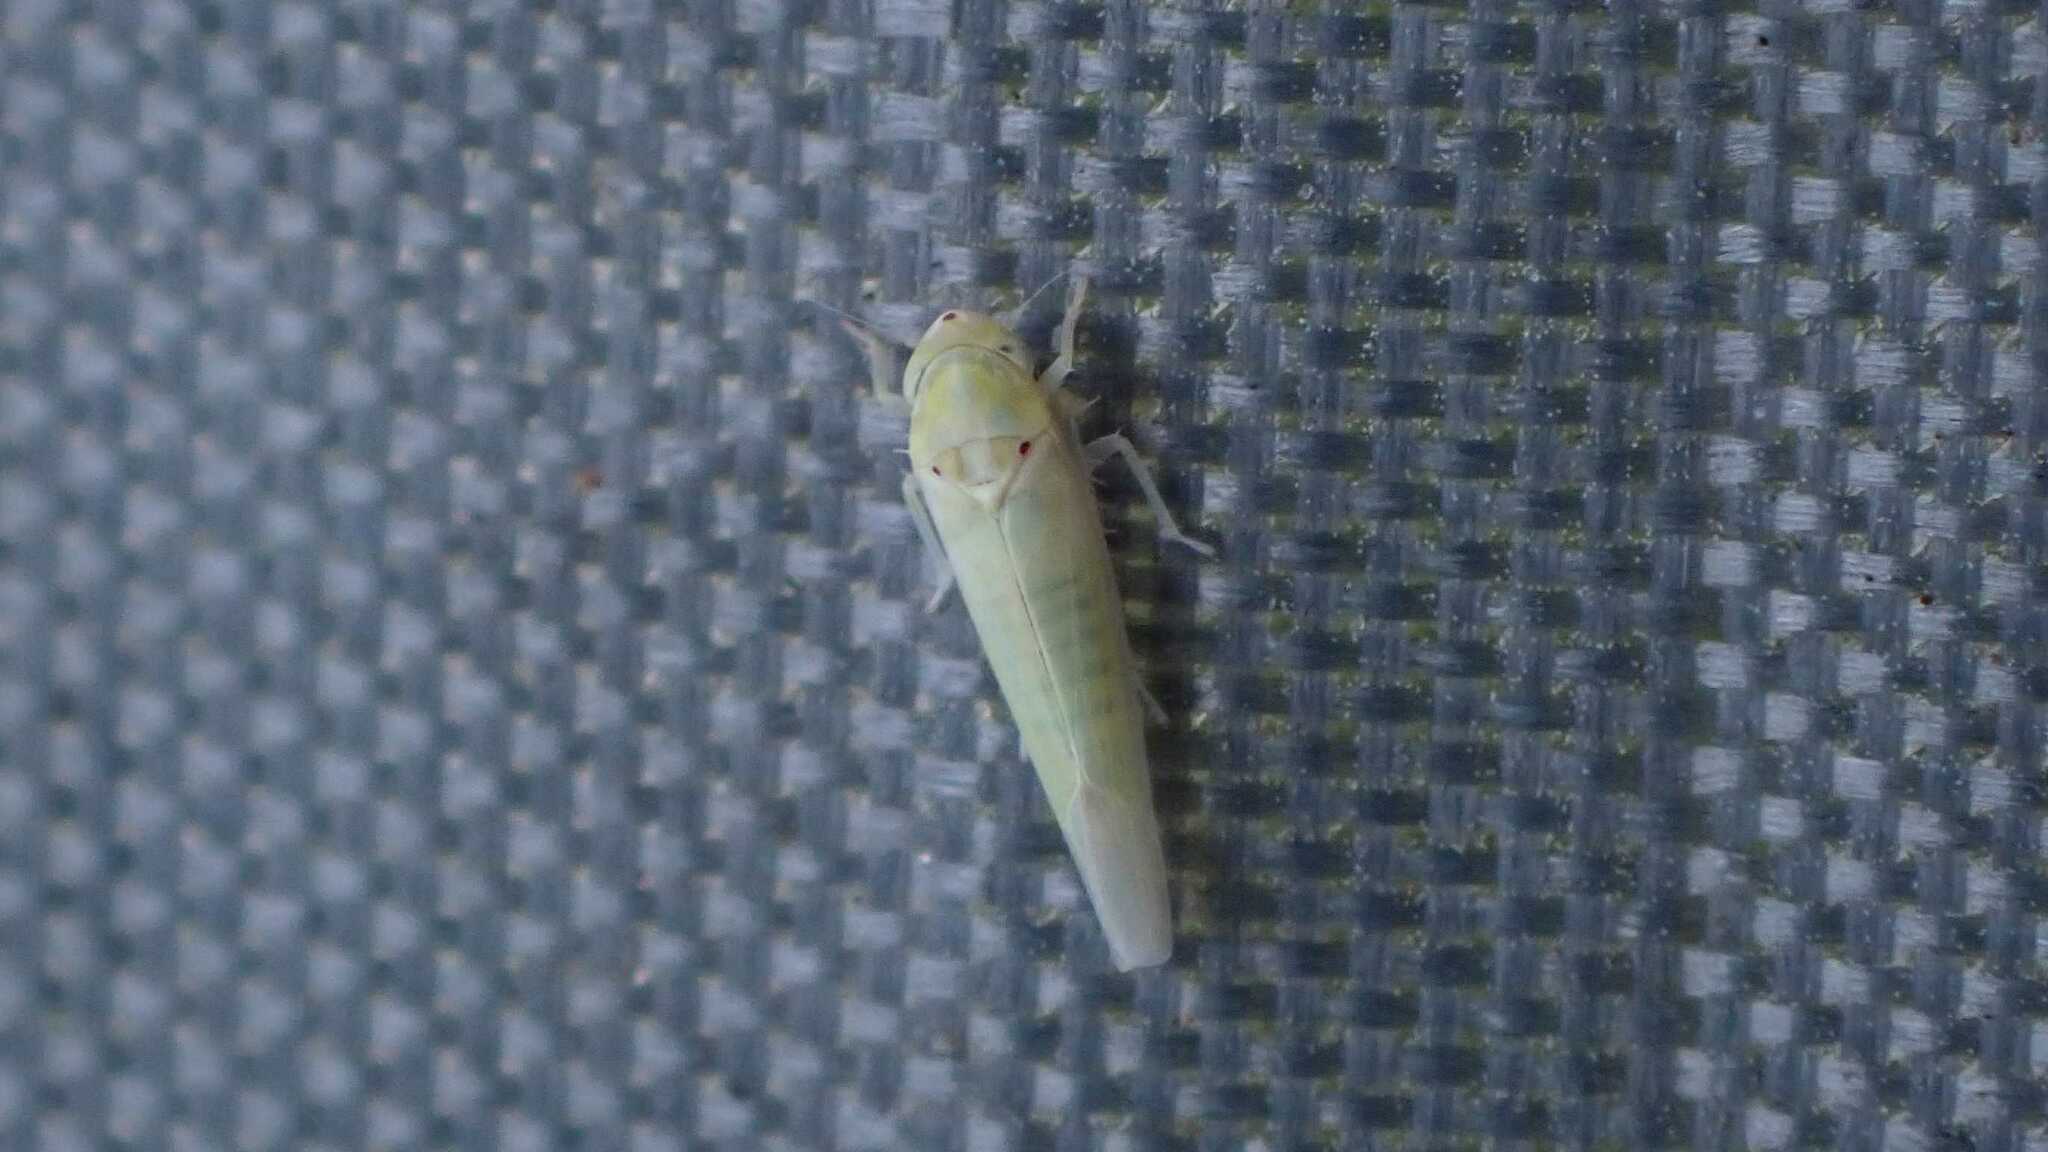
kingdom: Animalia
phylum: Arthropoda
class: Insecta
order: Hemiptera
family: Cicadellidae
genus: Zygina
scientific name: Zygina nivea
